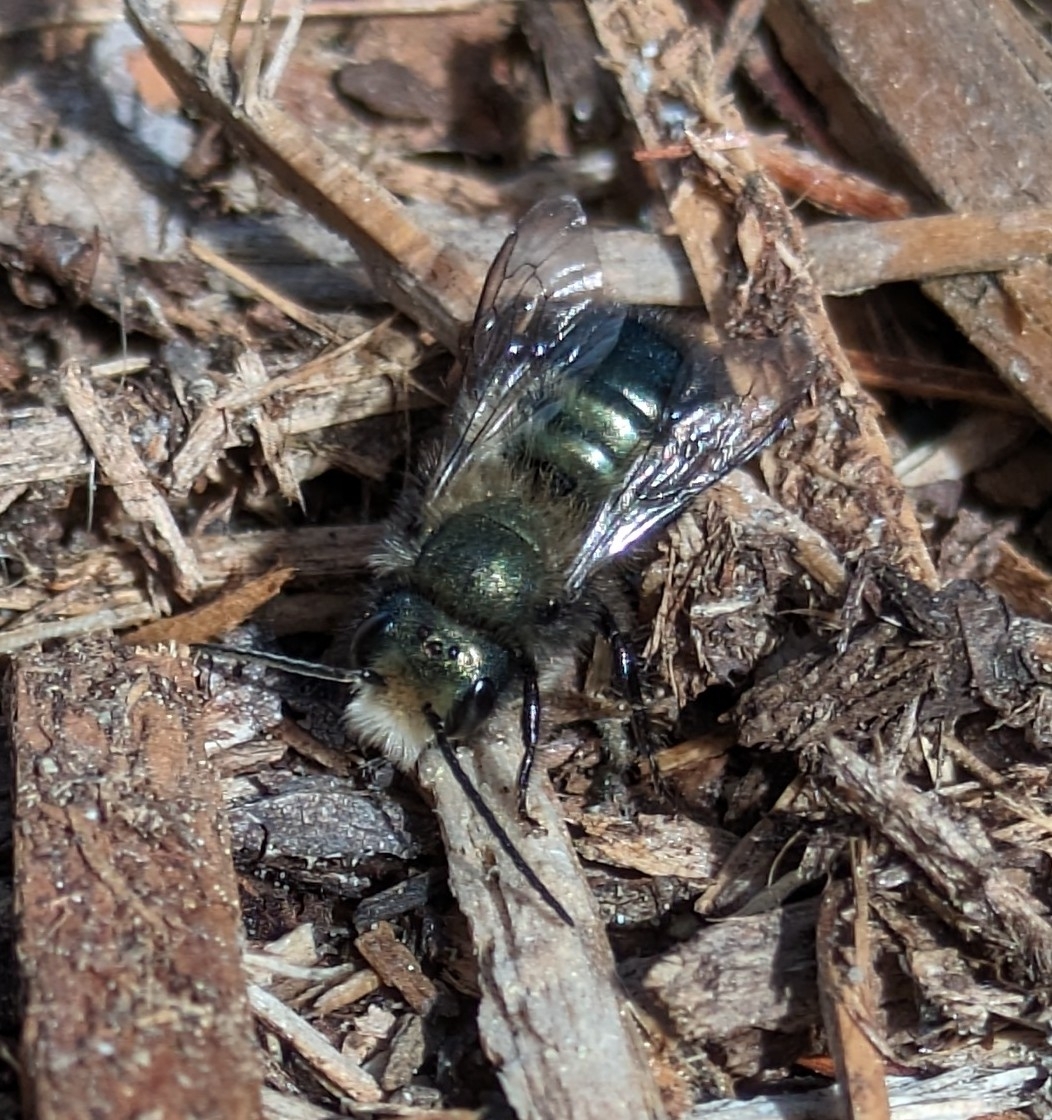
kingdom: Animalia
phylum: Arthropoda
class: Insecta
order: Hymenoptera
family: Megachilidae
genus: Osmia
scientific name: Osmia lignaria
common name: Blue orchard bee
